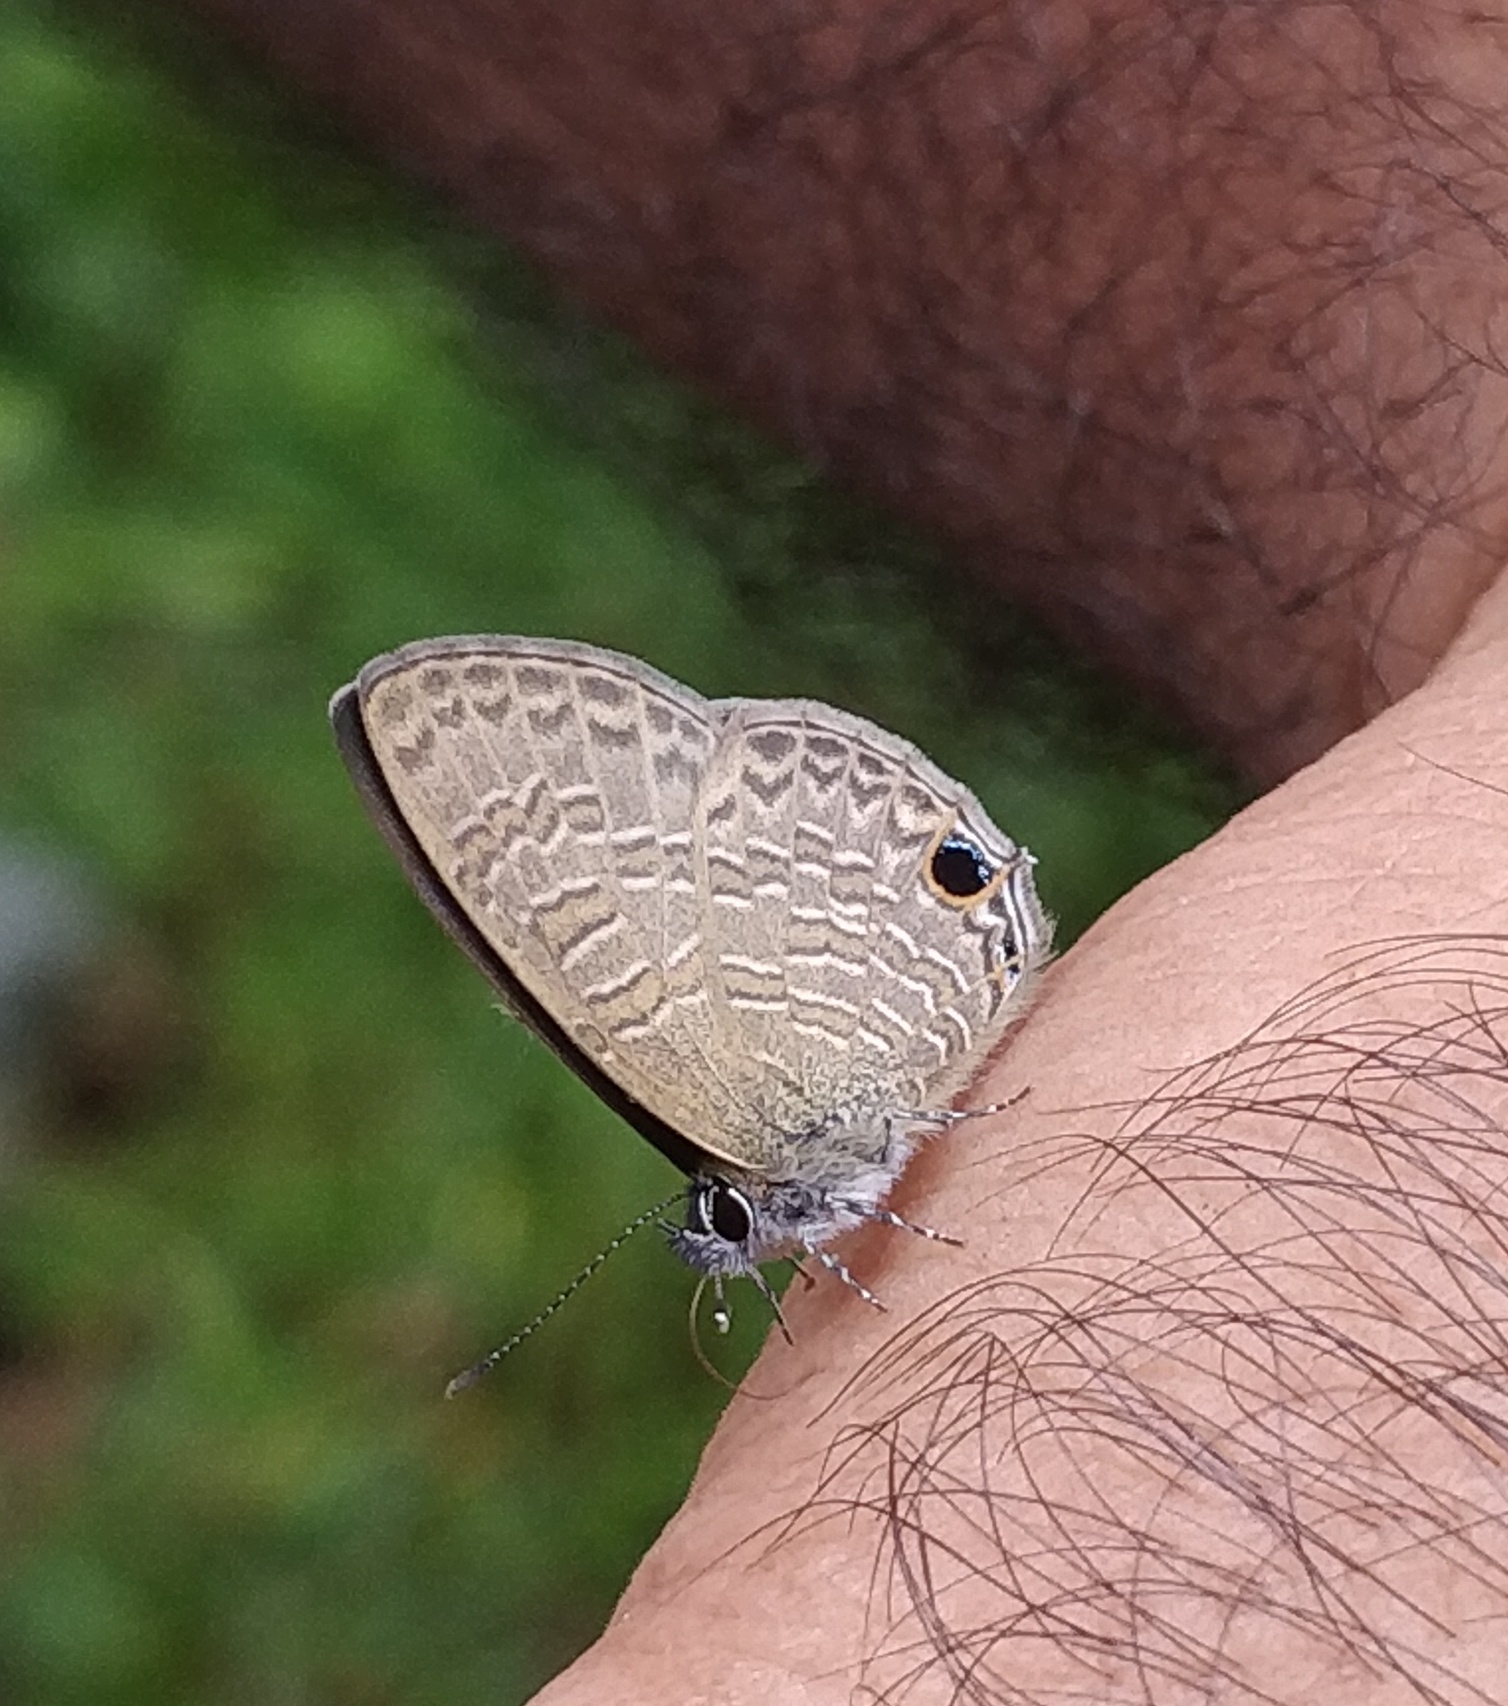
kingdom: Animalia
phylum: Arthropoda
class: Insecta
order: Lepidoptera
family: Lycaenidae
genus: Prosotas
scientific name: Prosotas nora
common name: Common line blue
